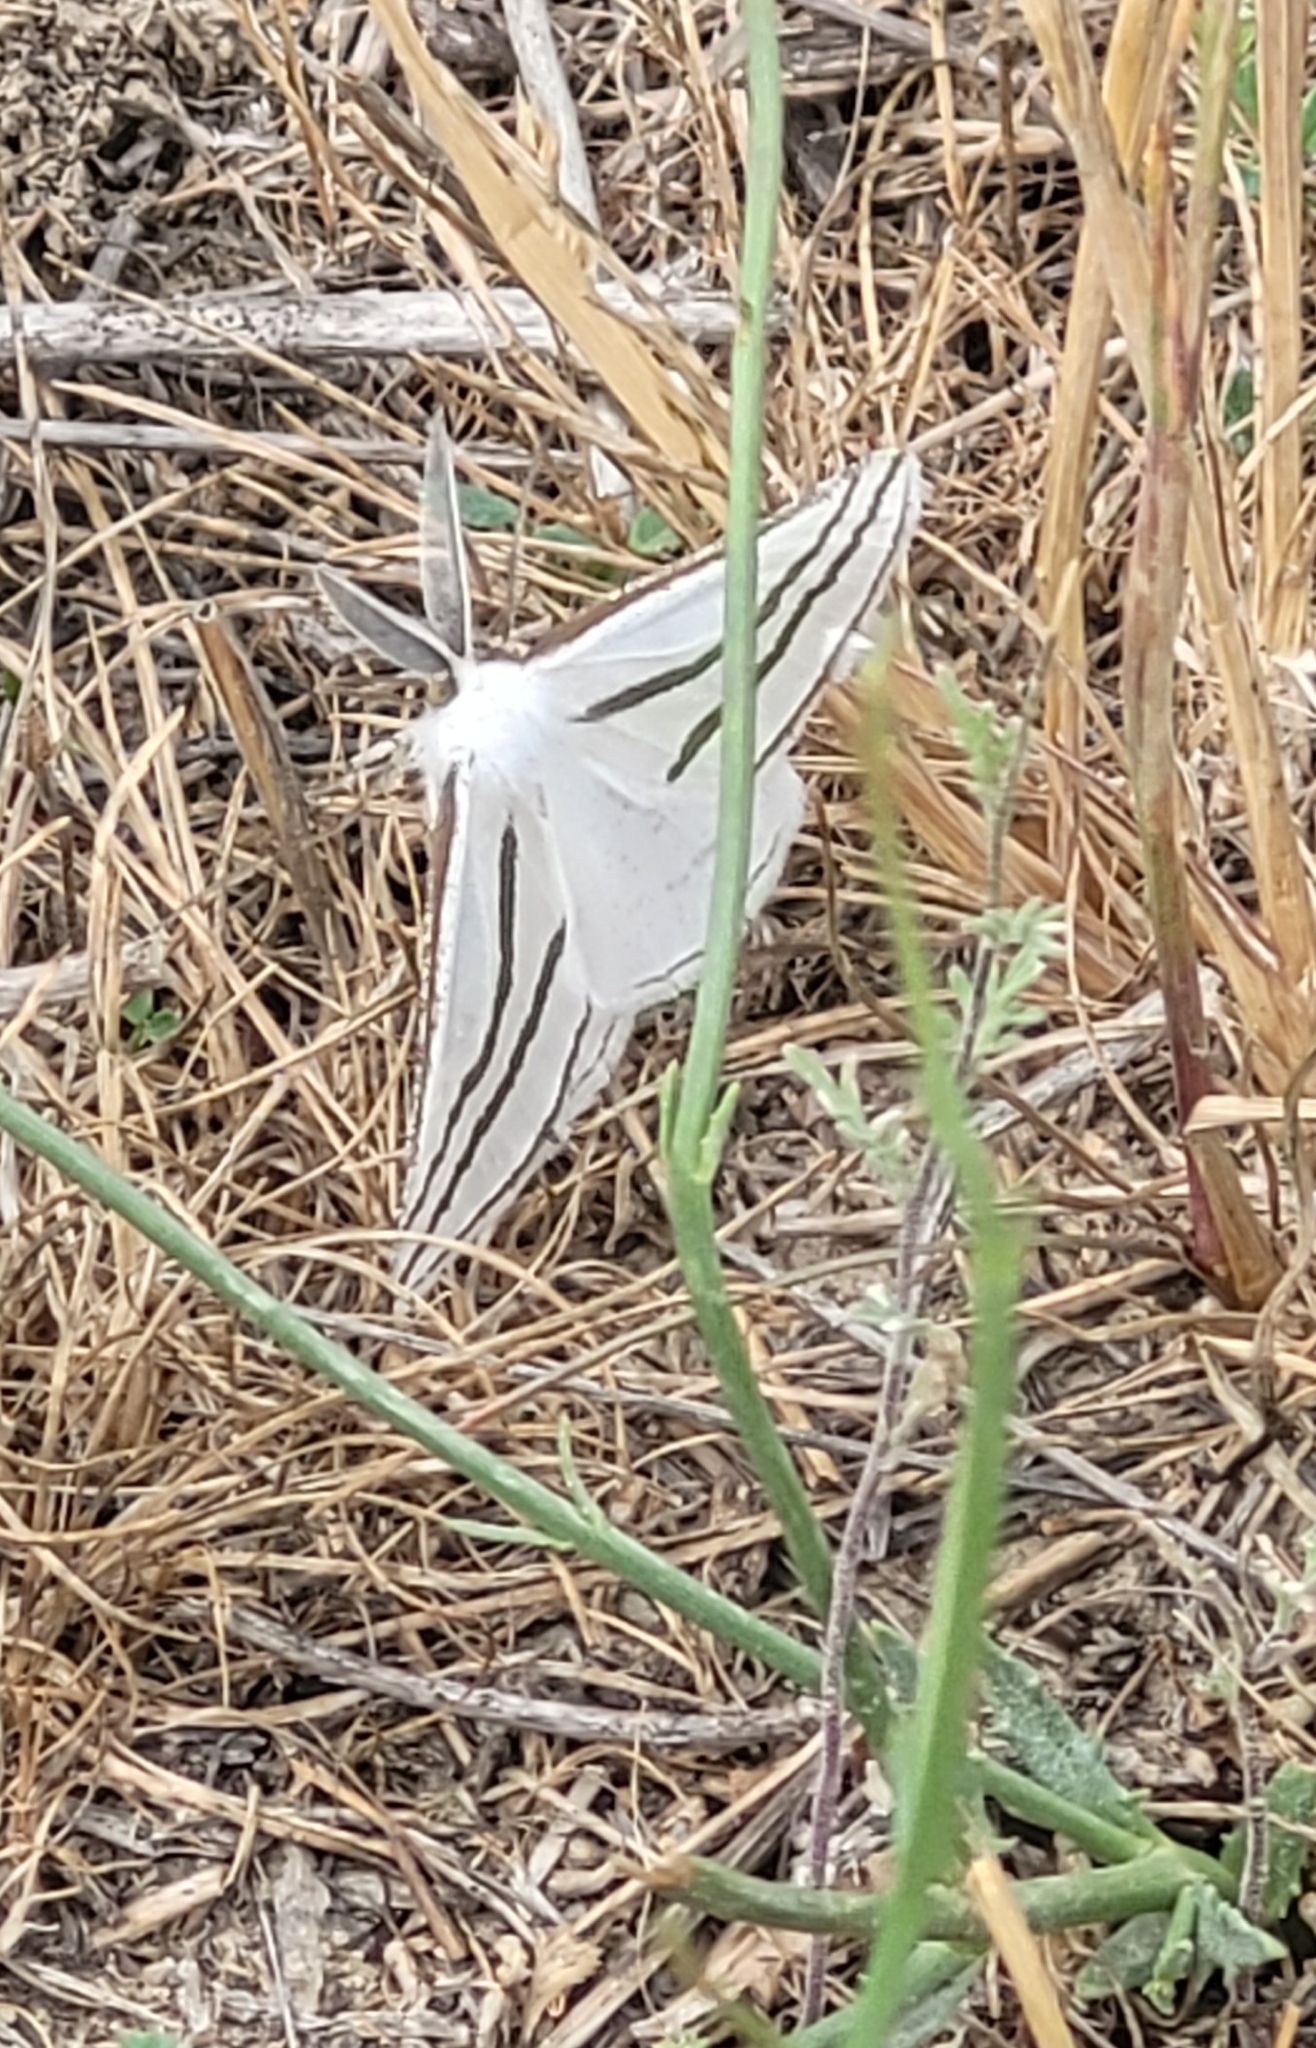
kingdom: Animalia
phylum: Arthropoda
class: Insecta
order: Lepidoptera
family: Geometridae
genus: Megaspilates
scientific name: Megaspilates mundataria
